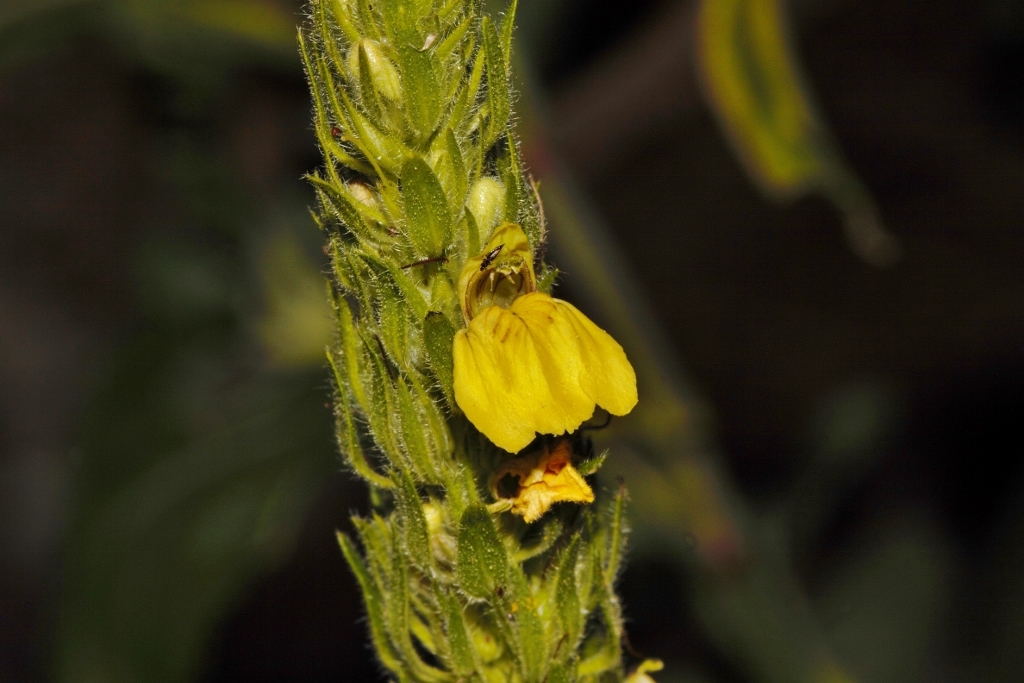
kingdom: Plantae
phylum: Tracheophyta
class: Magnoliopsida
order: Lamiales
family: Acanthaceae
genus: Justicia
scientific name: Justicia flava
